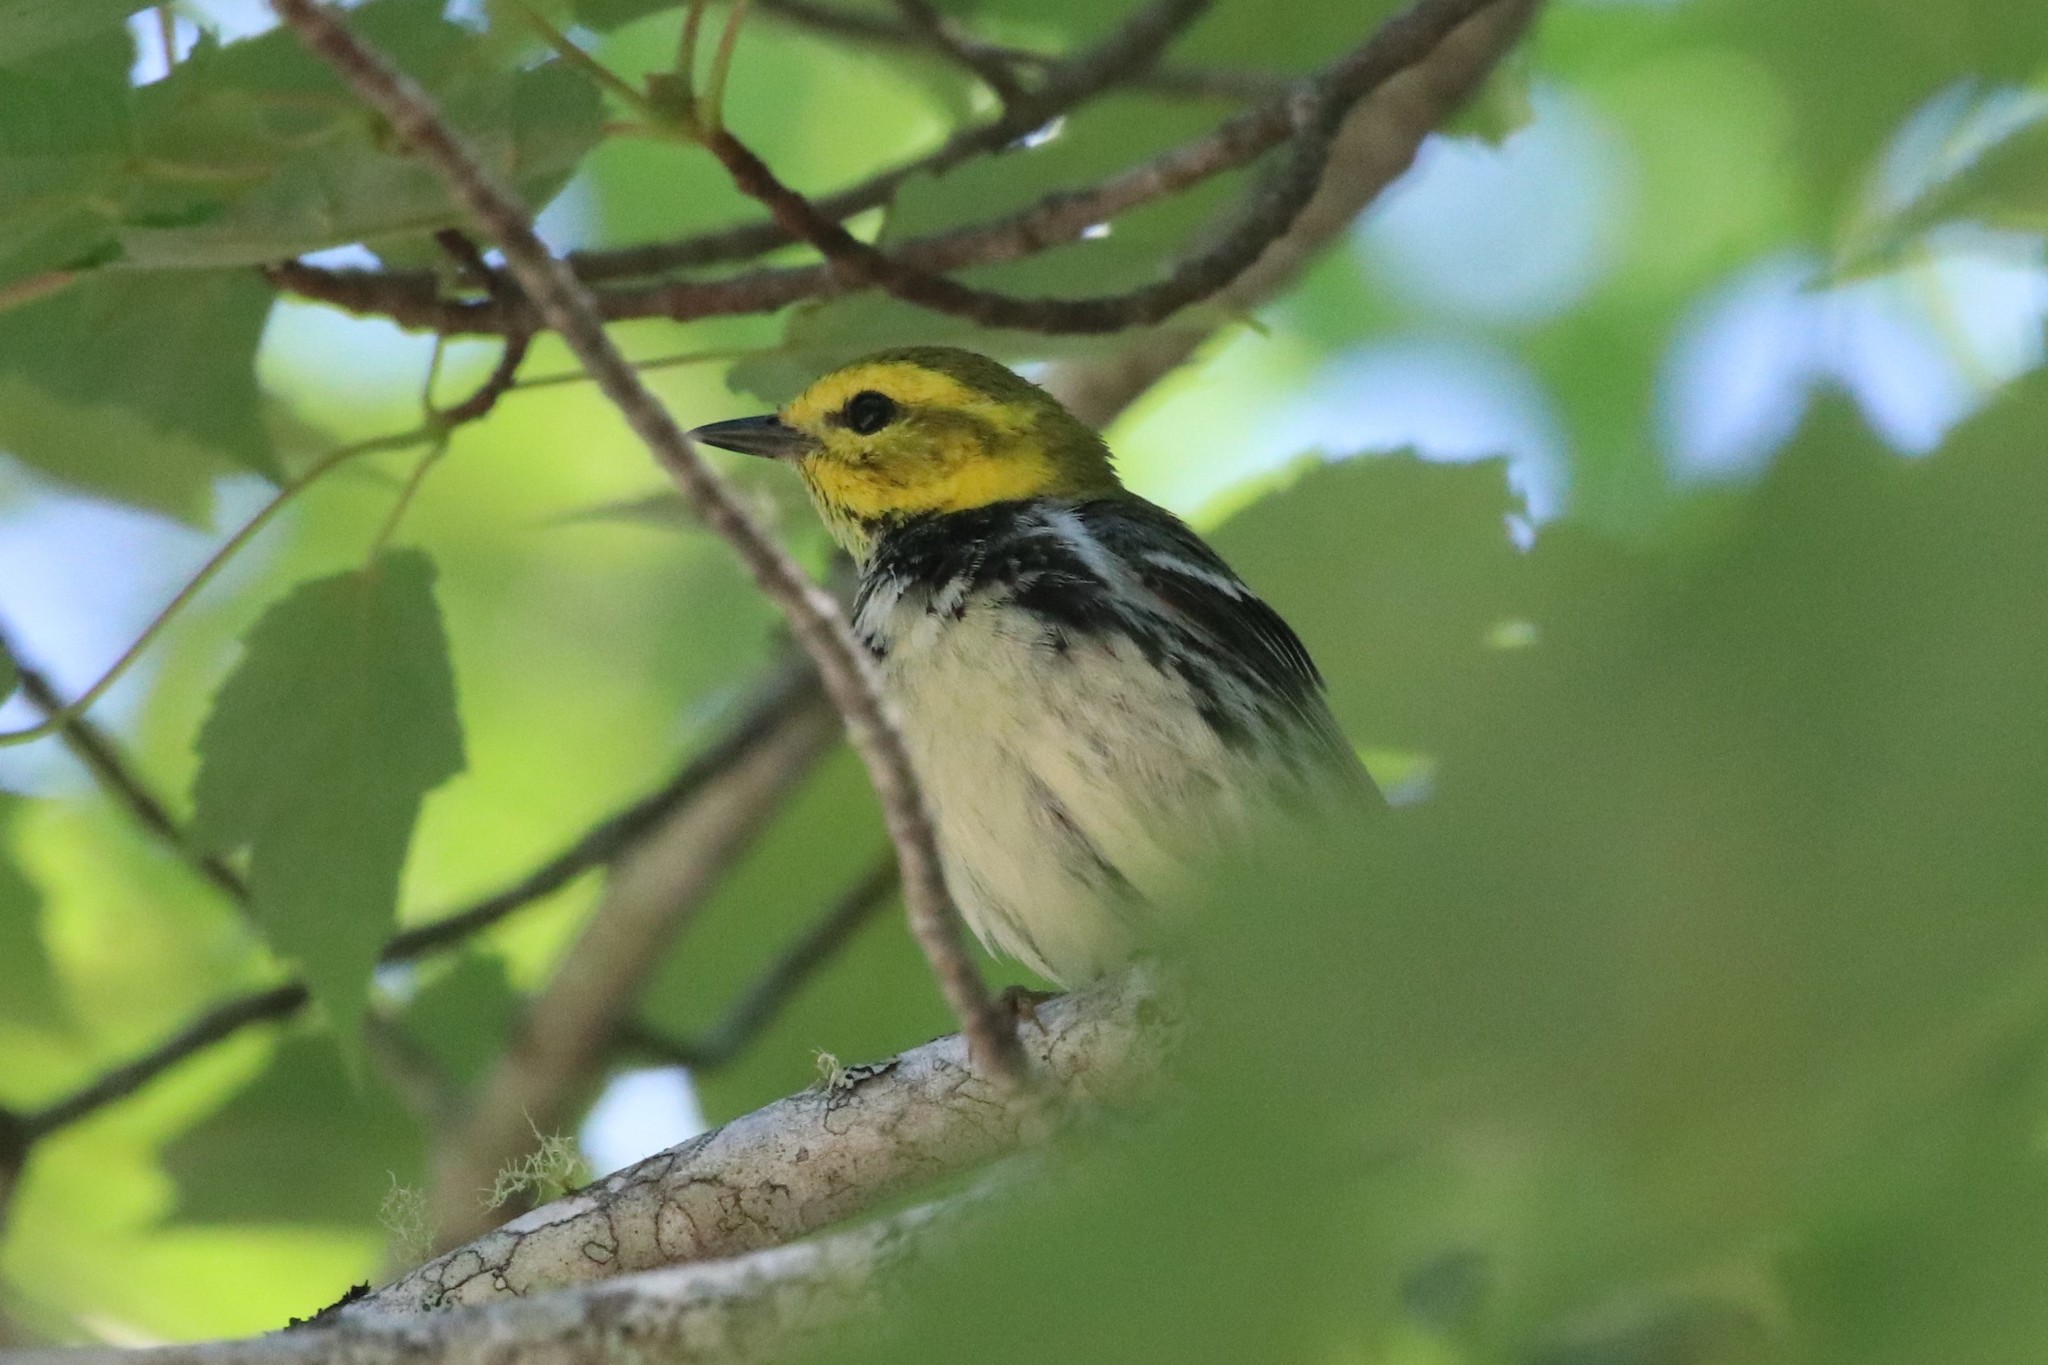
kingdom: Animalia
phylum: Chordata
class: Aves
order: Passeriformes
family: Parulidae
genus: Setophaga
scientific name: Setophaga virens
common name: Black-throated green warbler
